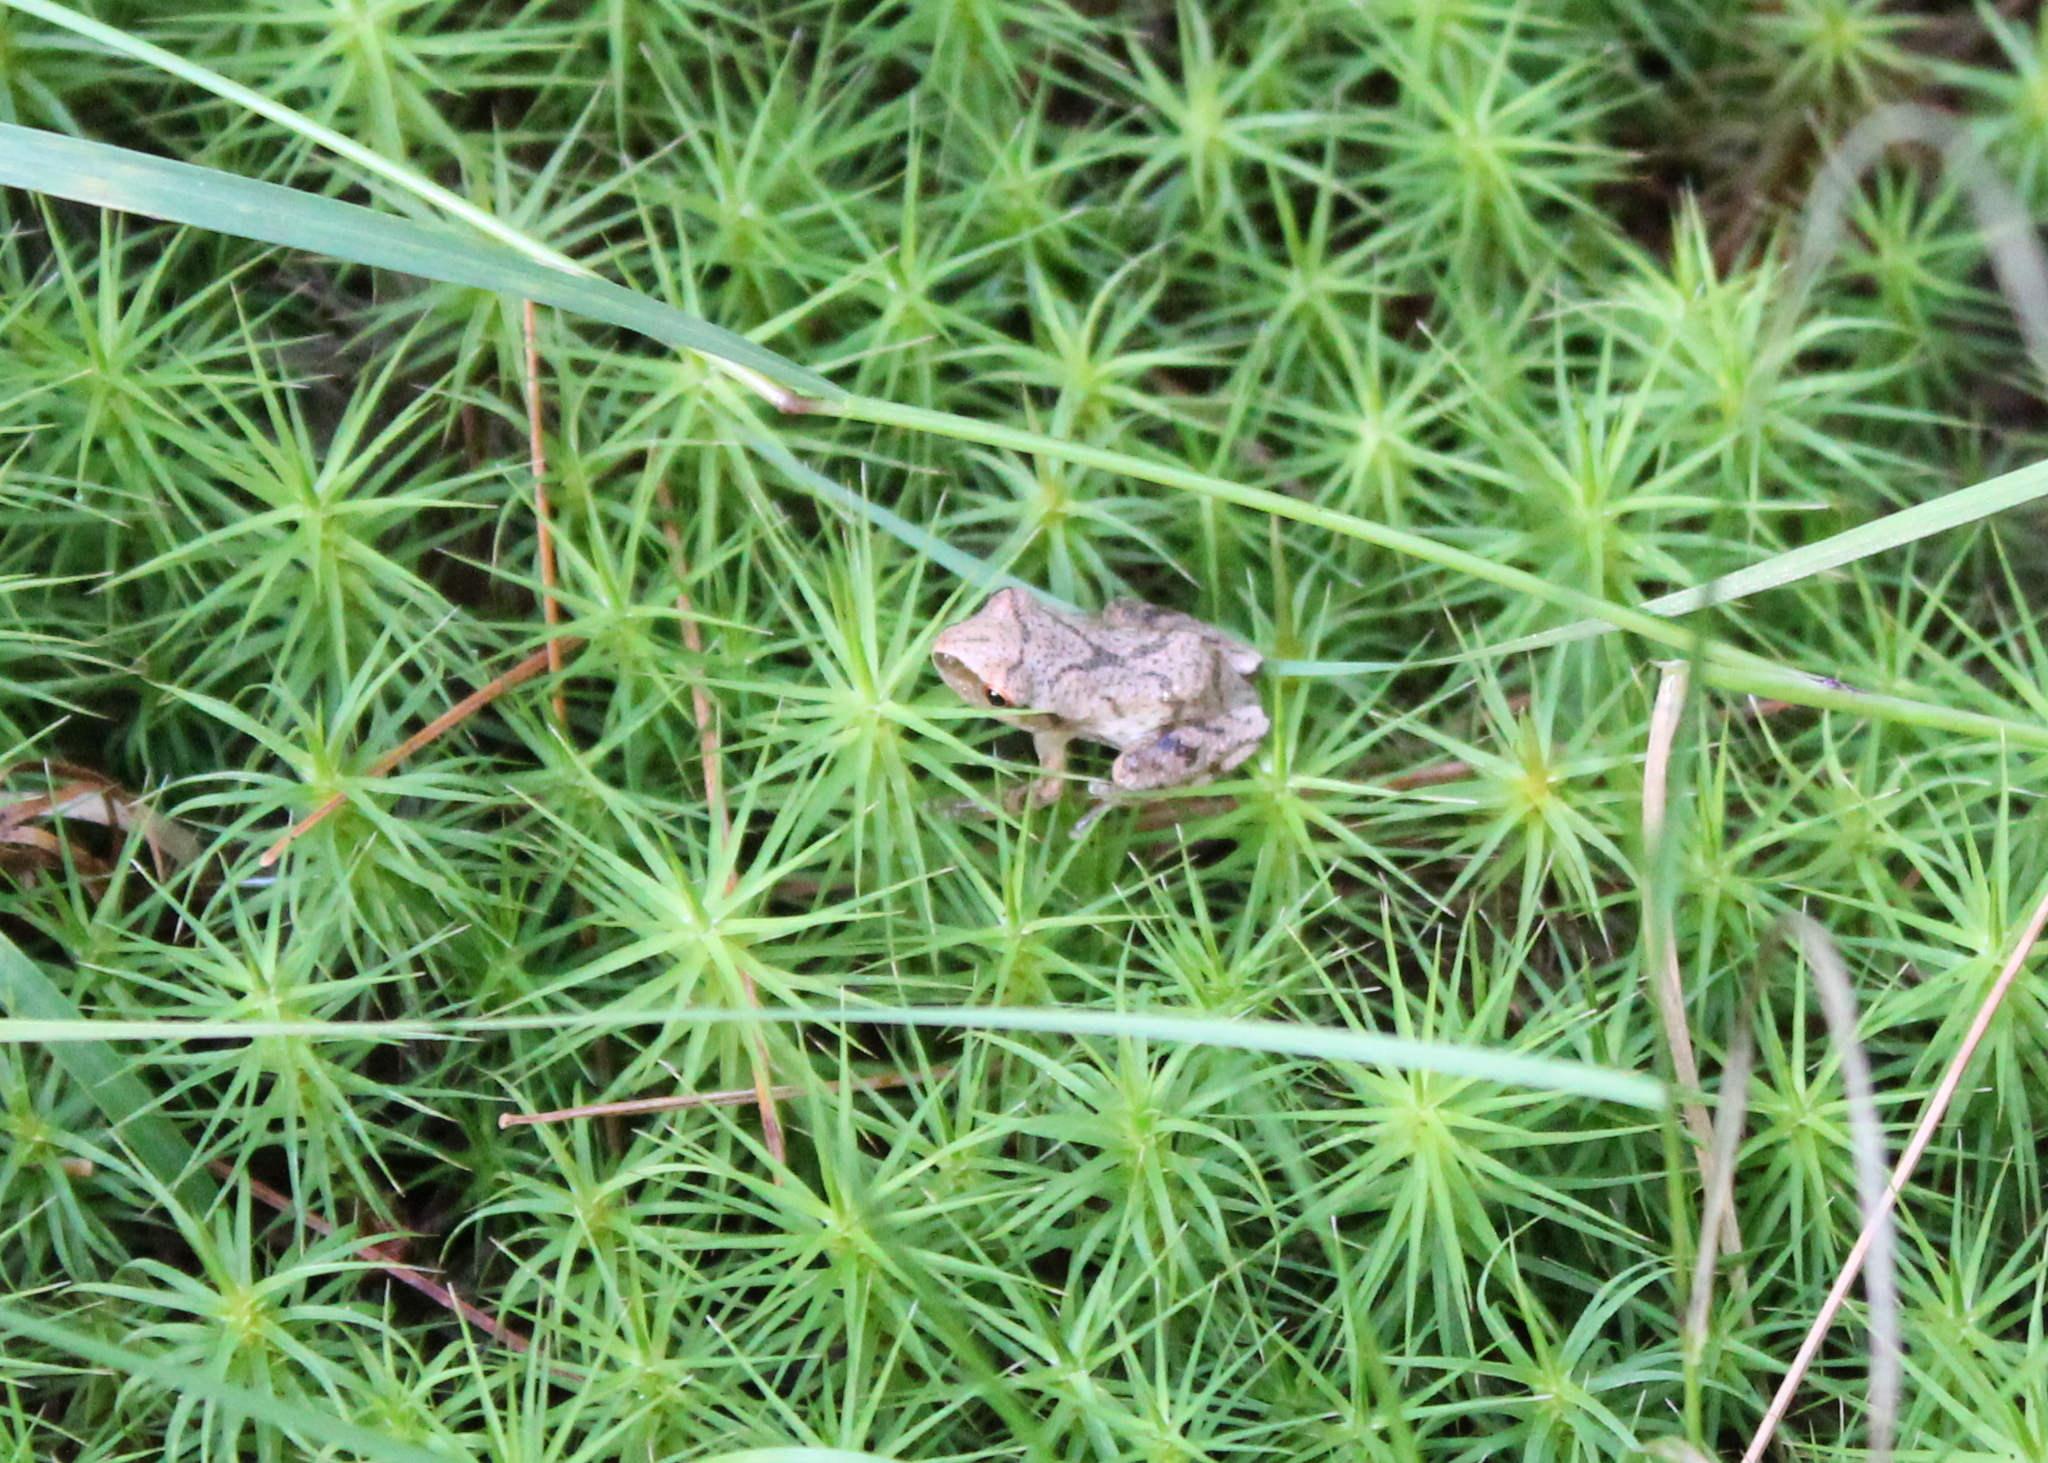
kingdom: Animalia
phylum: Chordata
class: Amphibia
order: Anura
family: Hylidae
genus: Pseudacris
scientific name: Pseudacris crucifer
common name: Spring peeper
